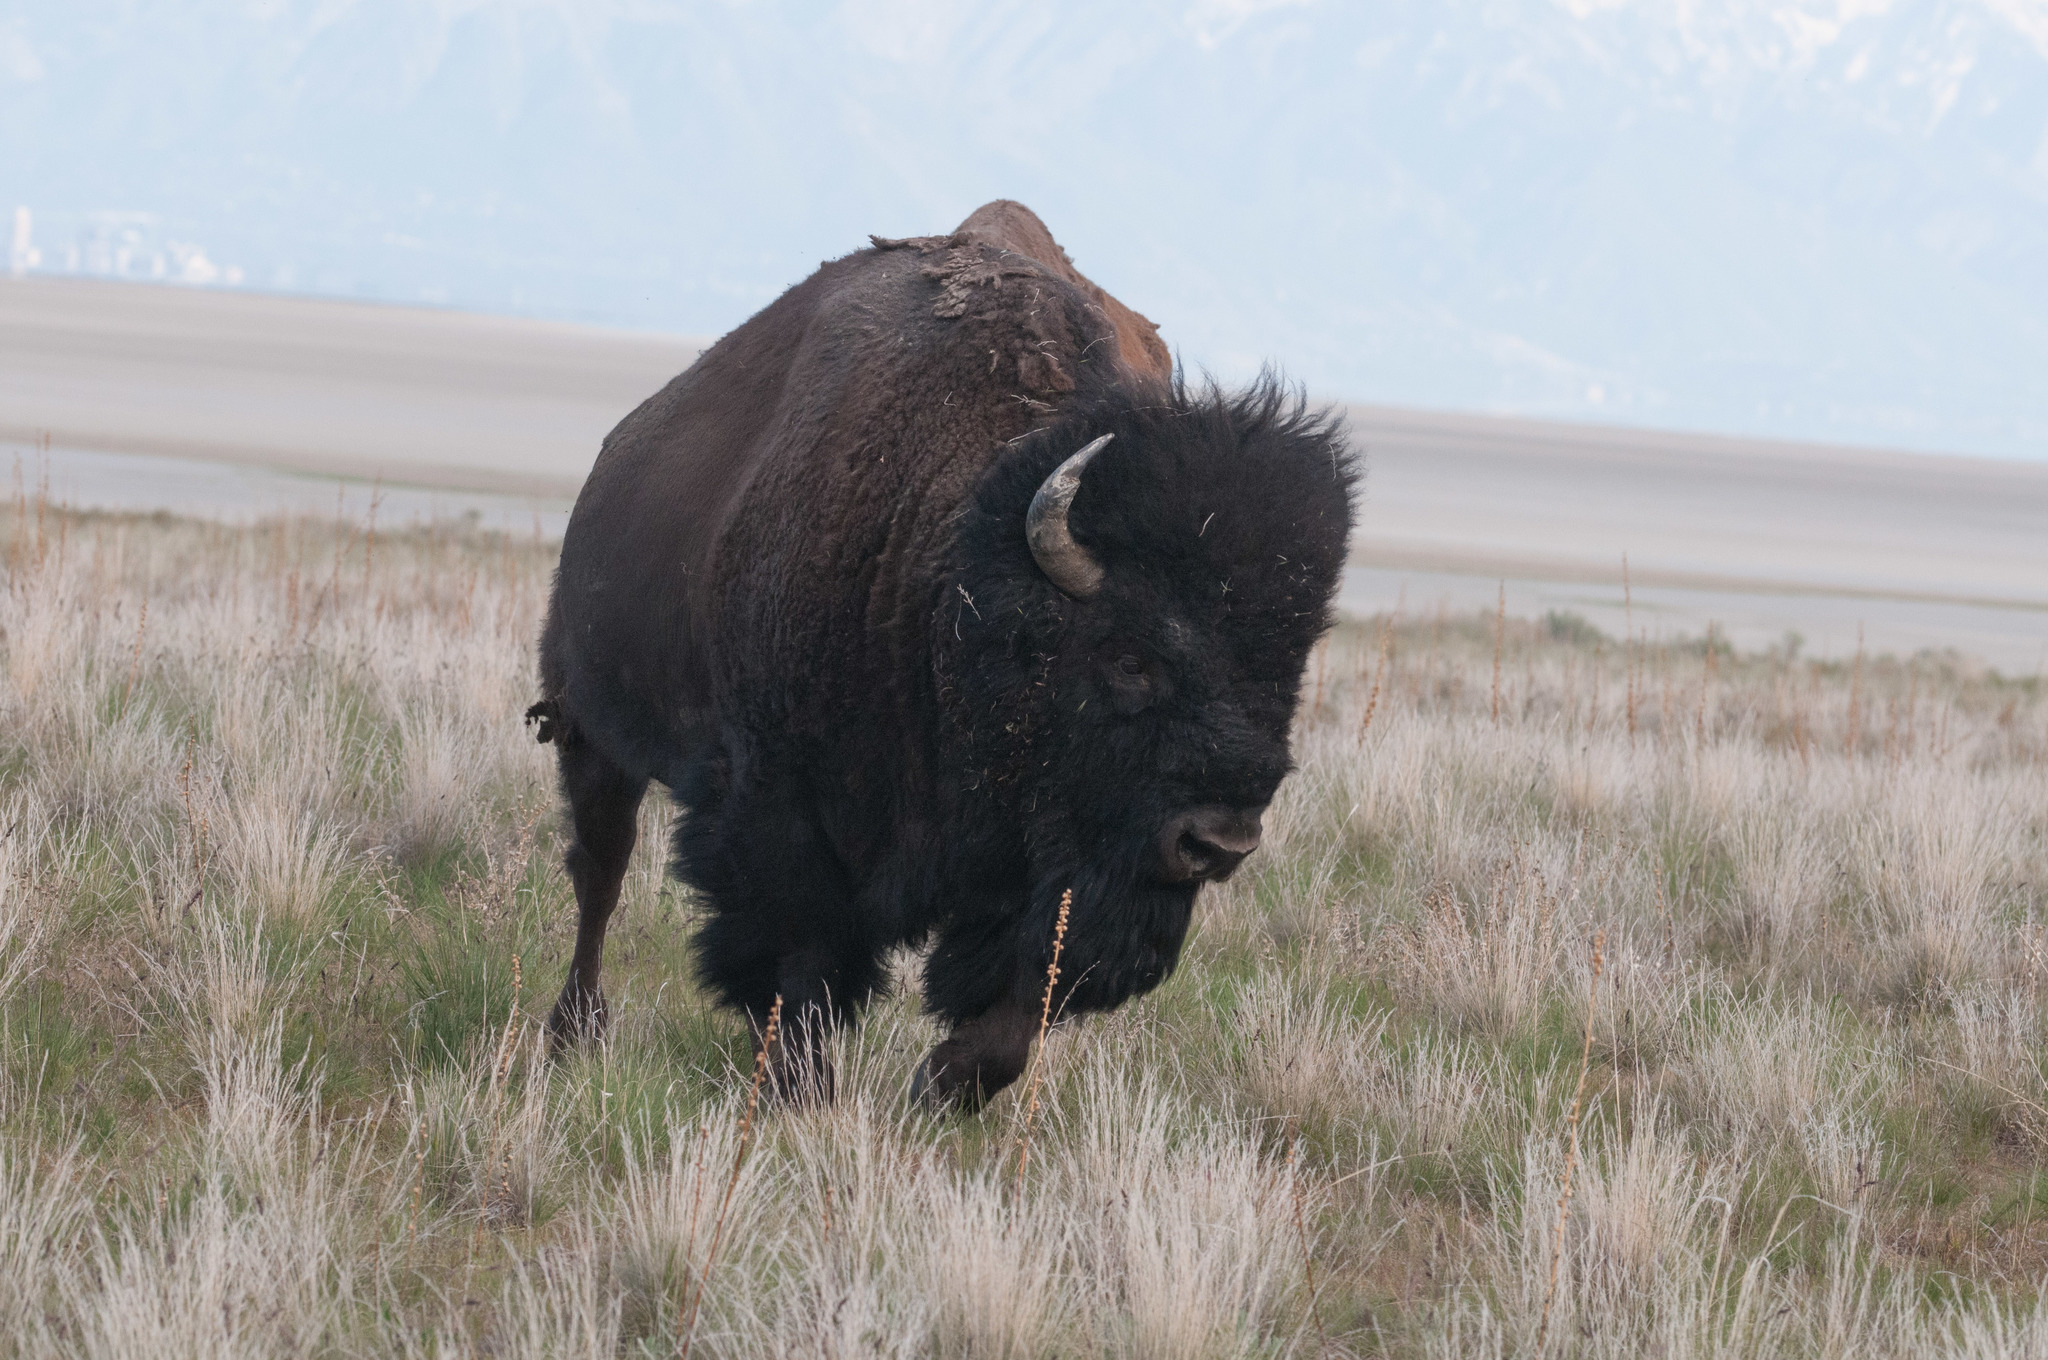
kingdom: Animalia
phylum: Chordata
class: Mammalia
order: Artiodactyla
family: Bovidae
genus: Bison
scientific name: Bison bison
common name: American bison
